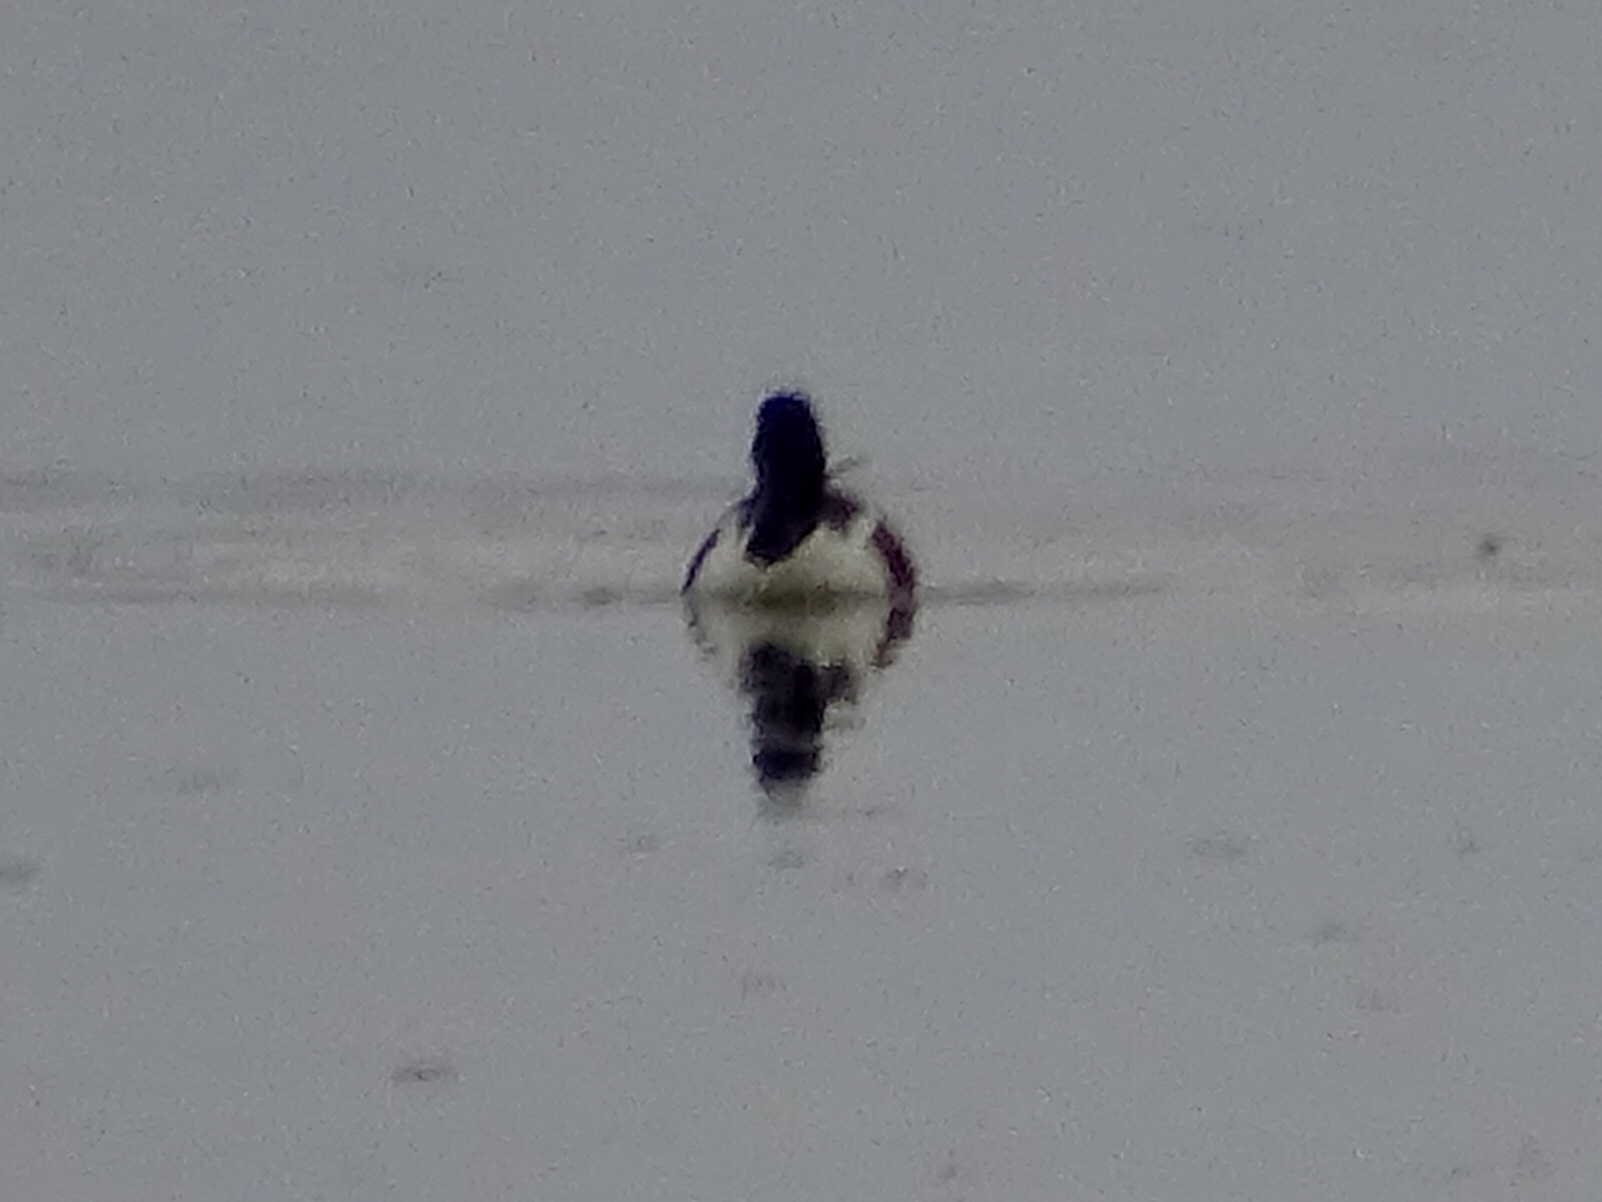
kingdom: Animalia
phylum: Chordata
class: Aves
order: Anseriformes
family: Anatidae
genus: Spatula
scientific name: Spatula clypeata
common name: Northern shoveler
